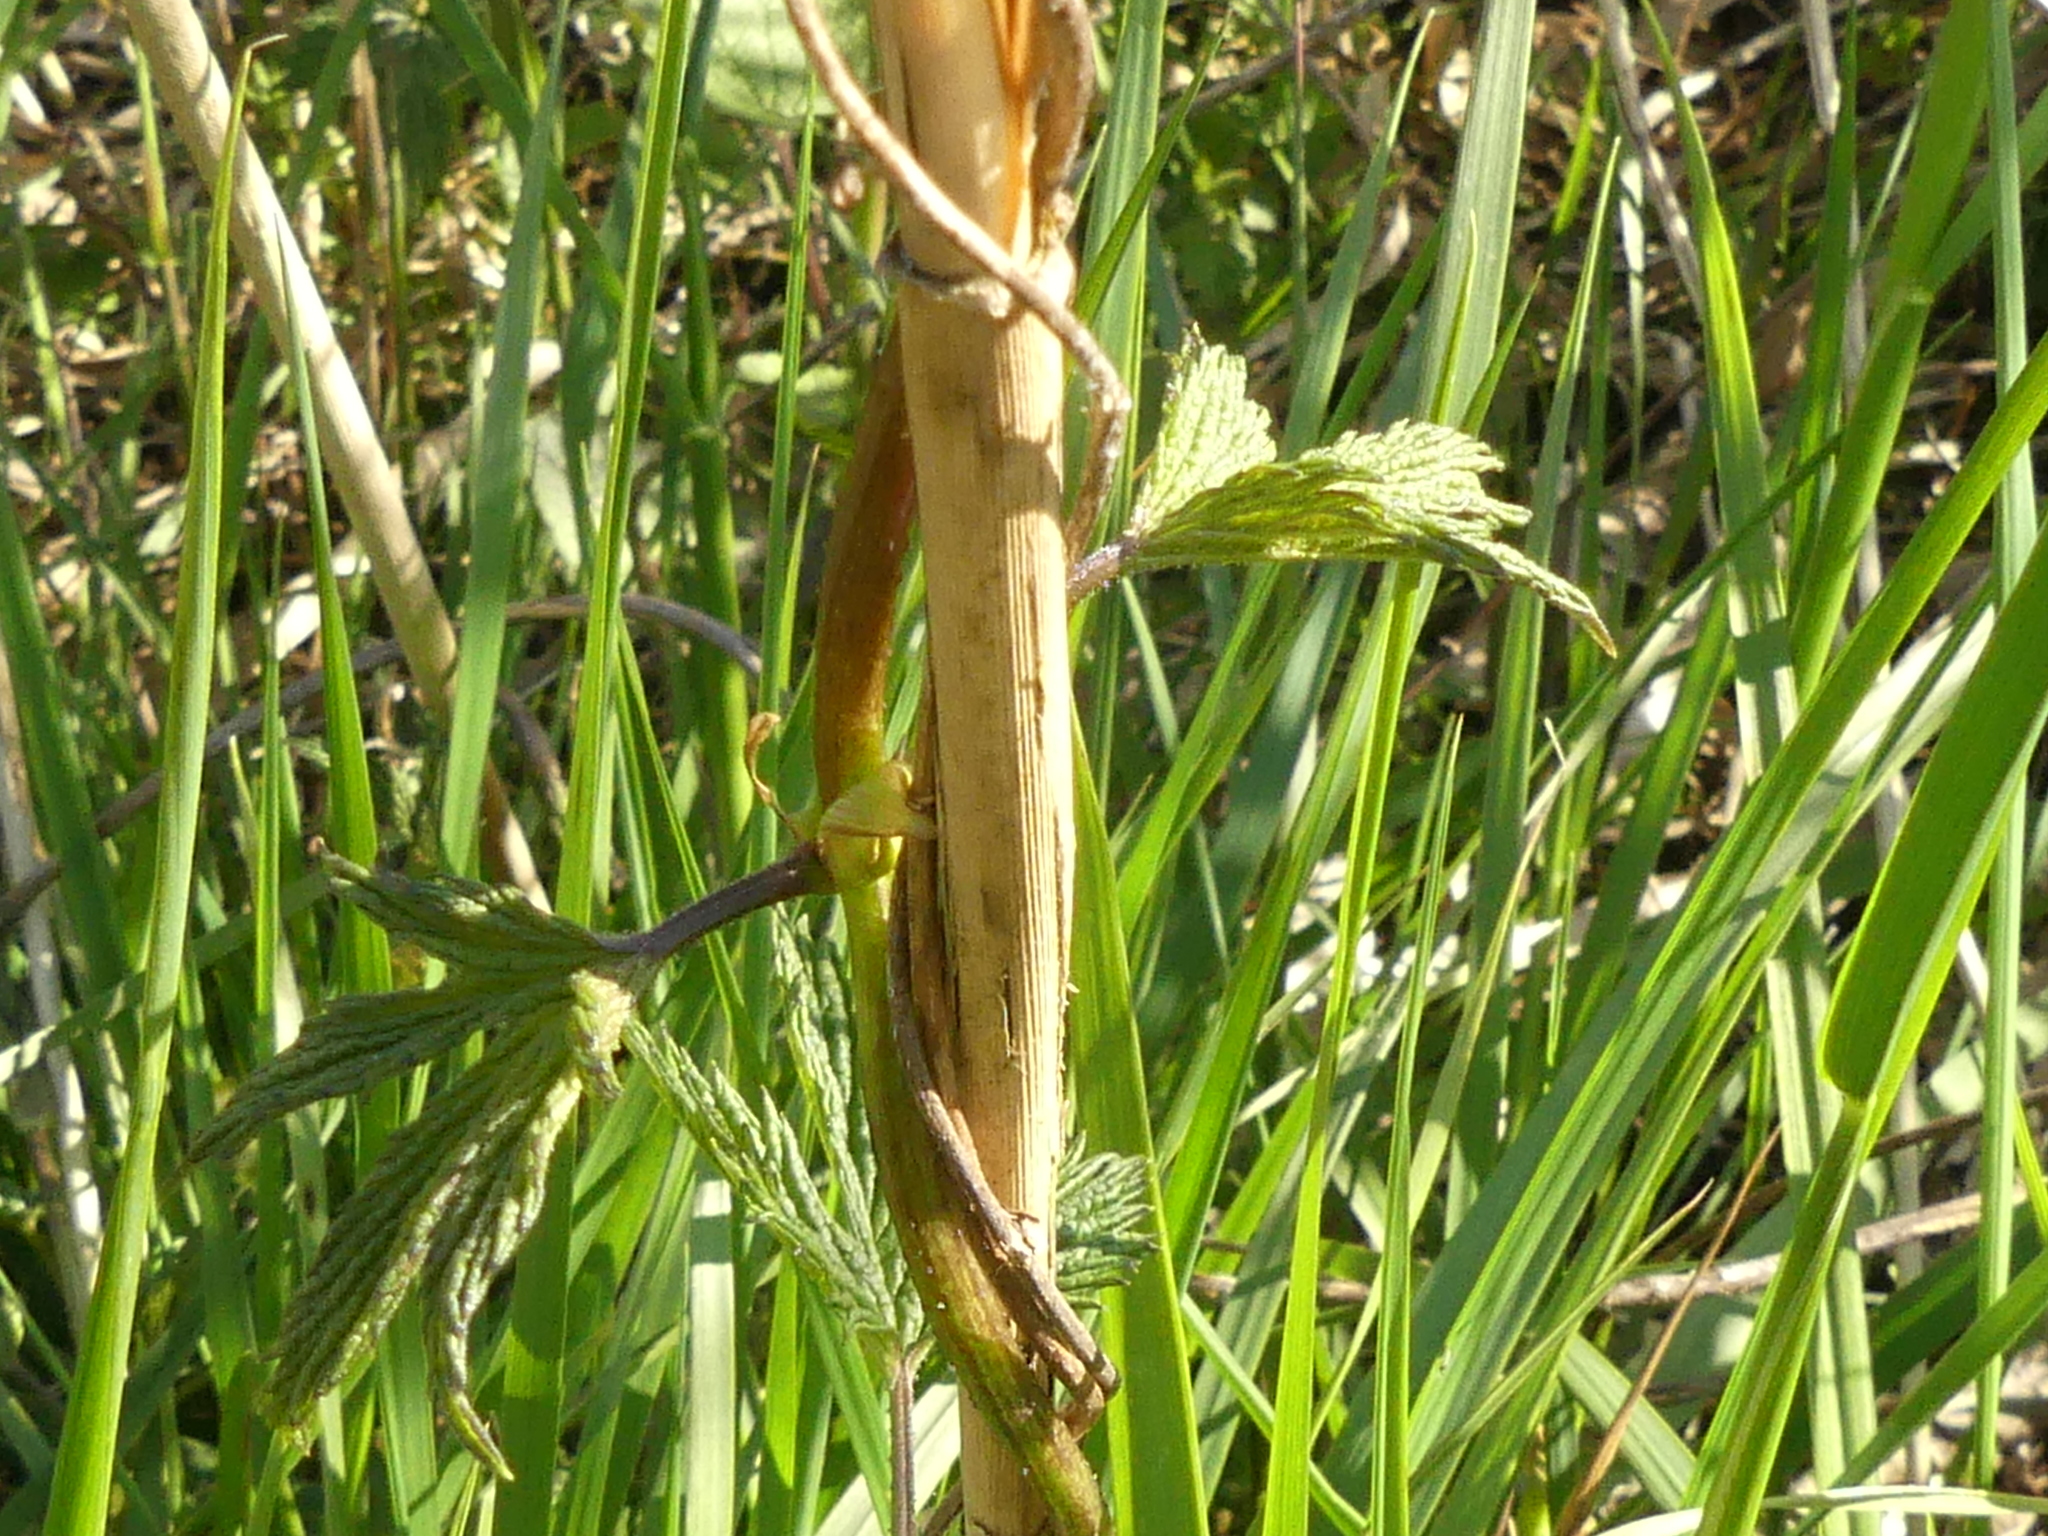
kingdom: Plantae
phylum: Tracheophyta
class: Magnoliopsida
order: Rosales
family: Cannabaceae
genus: Humulus
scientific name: Humulus lupulus
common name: Hop
